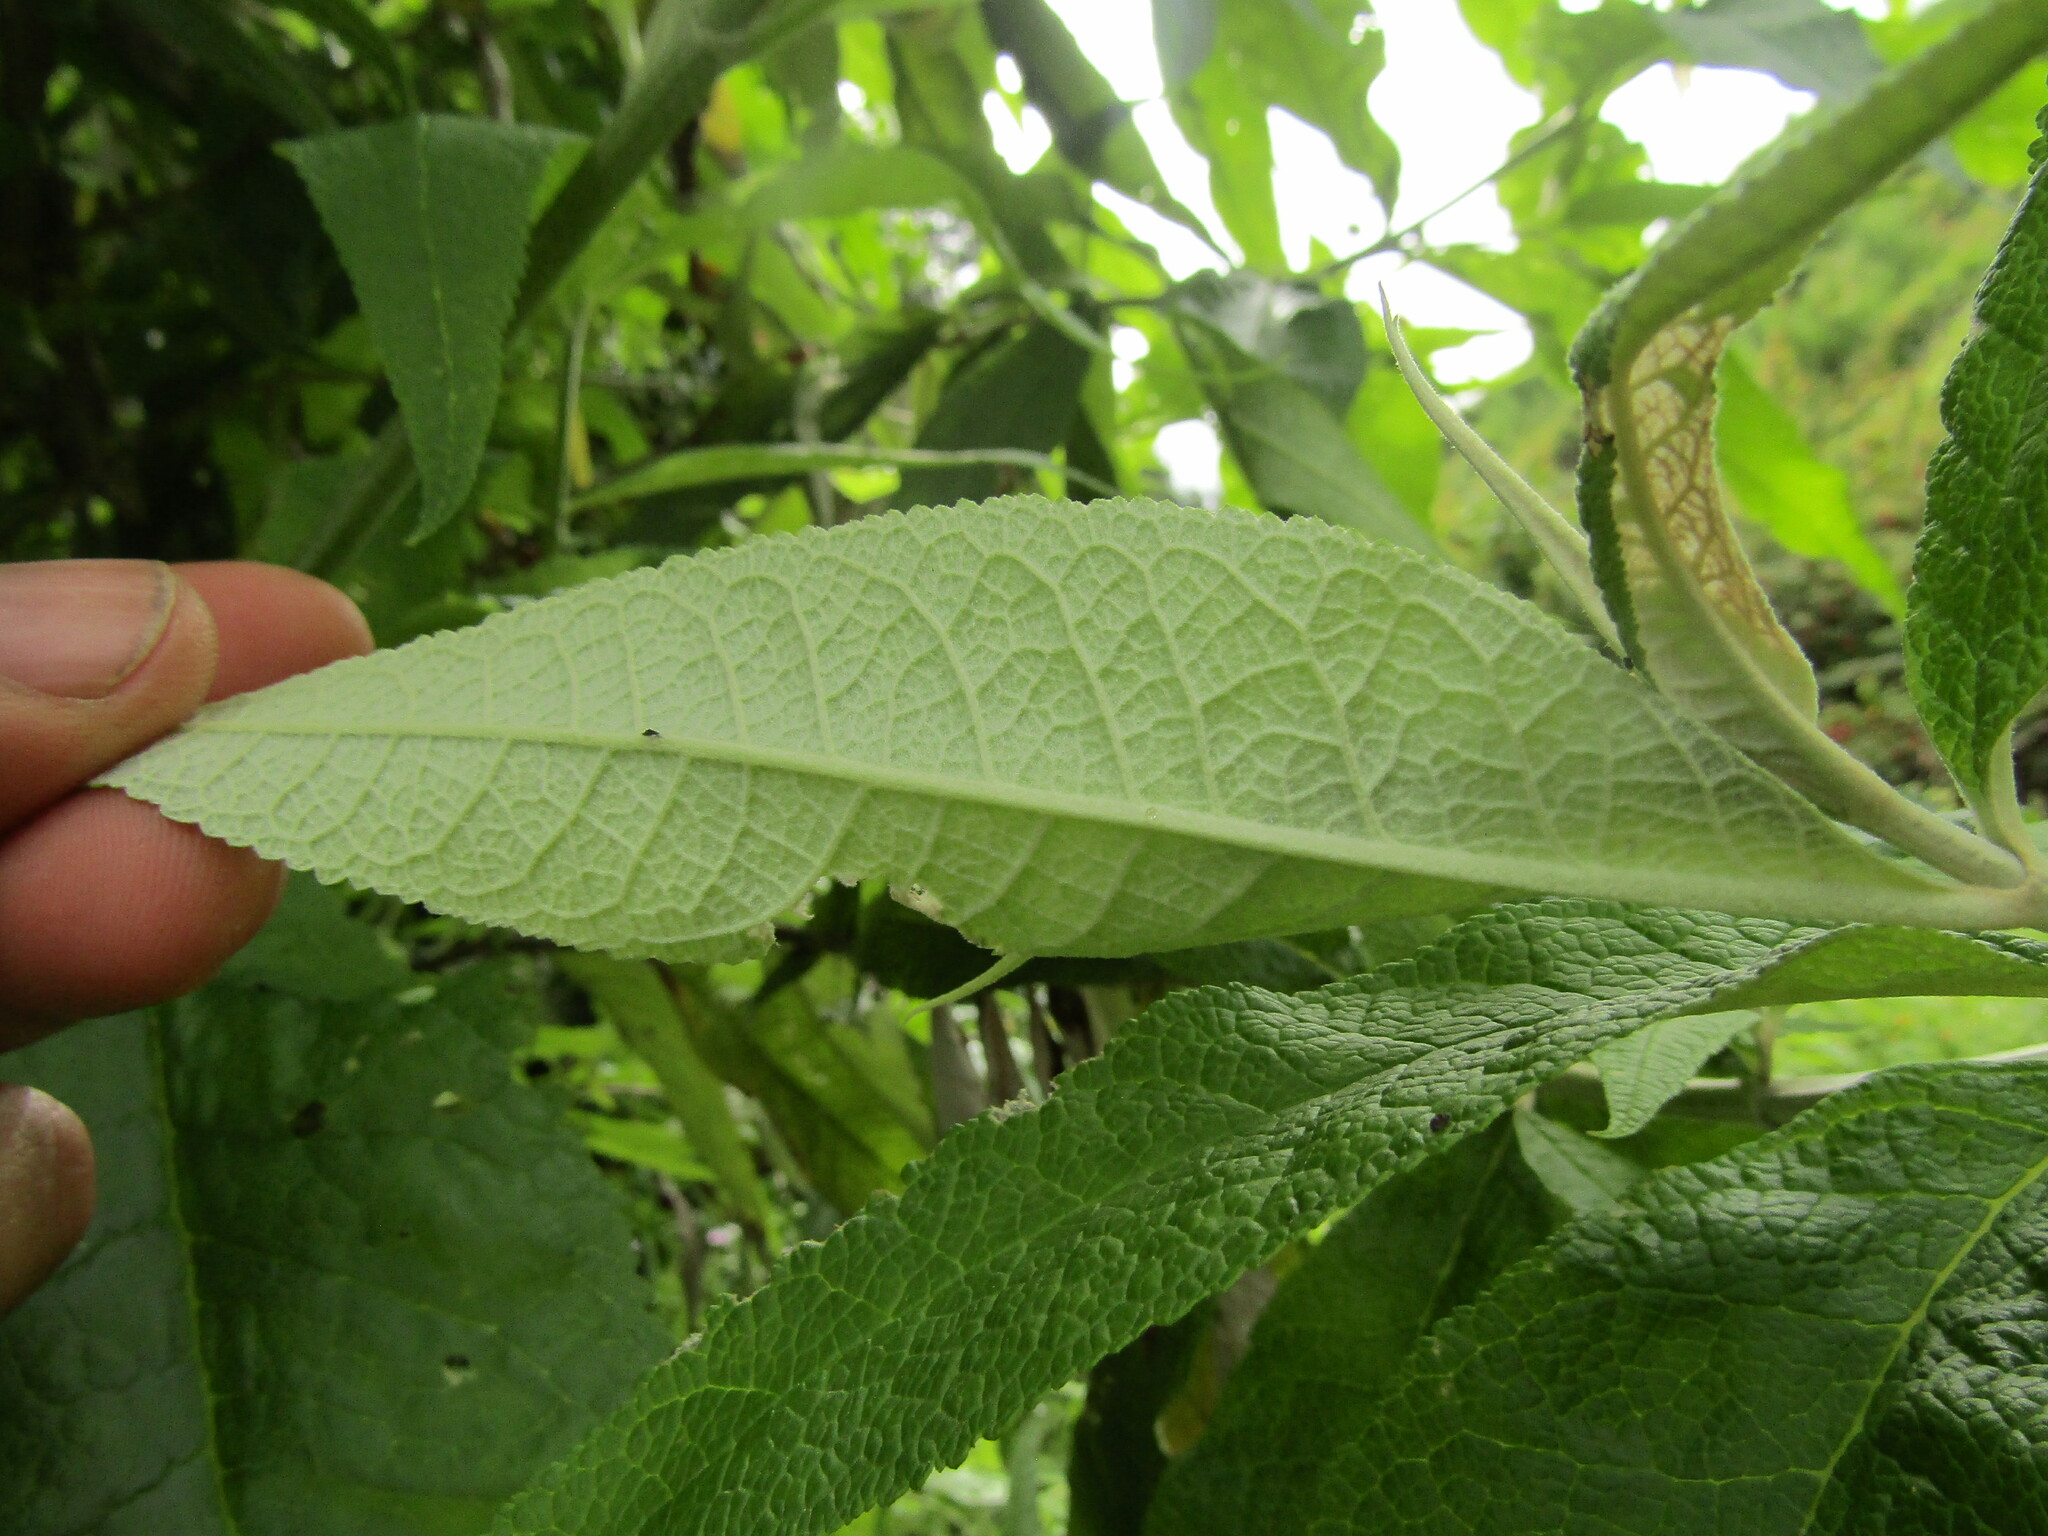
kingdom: Plantae
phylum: Tracheophyta
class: Magnoliopsida
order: Lamiales
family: Scrophulariaceae
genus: Buddleja
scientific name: Buddleja globosa
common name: Orange-ball-tree
